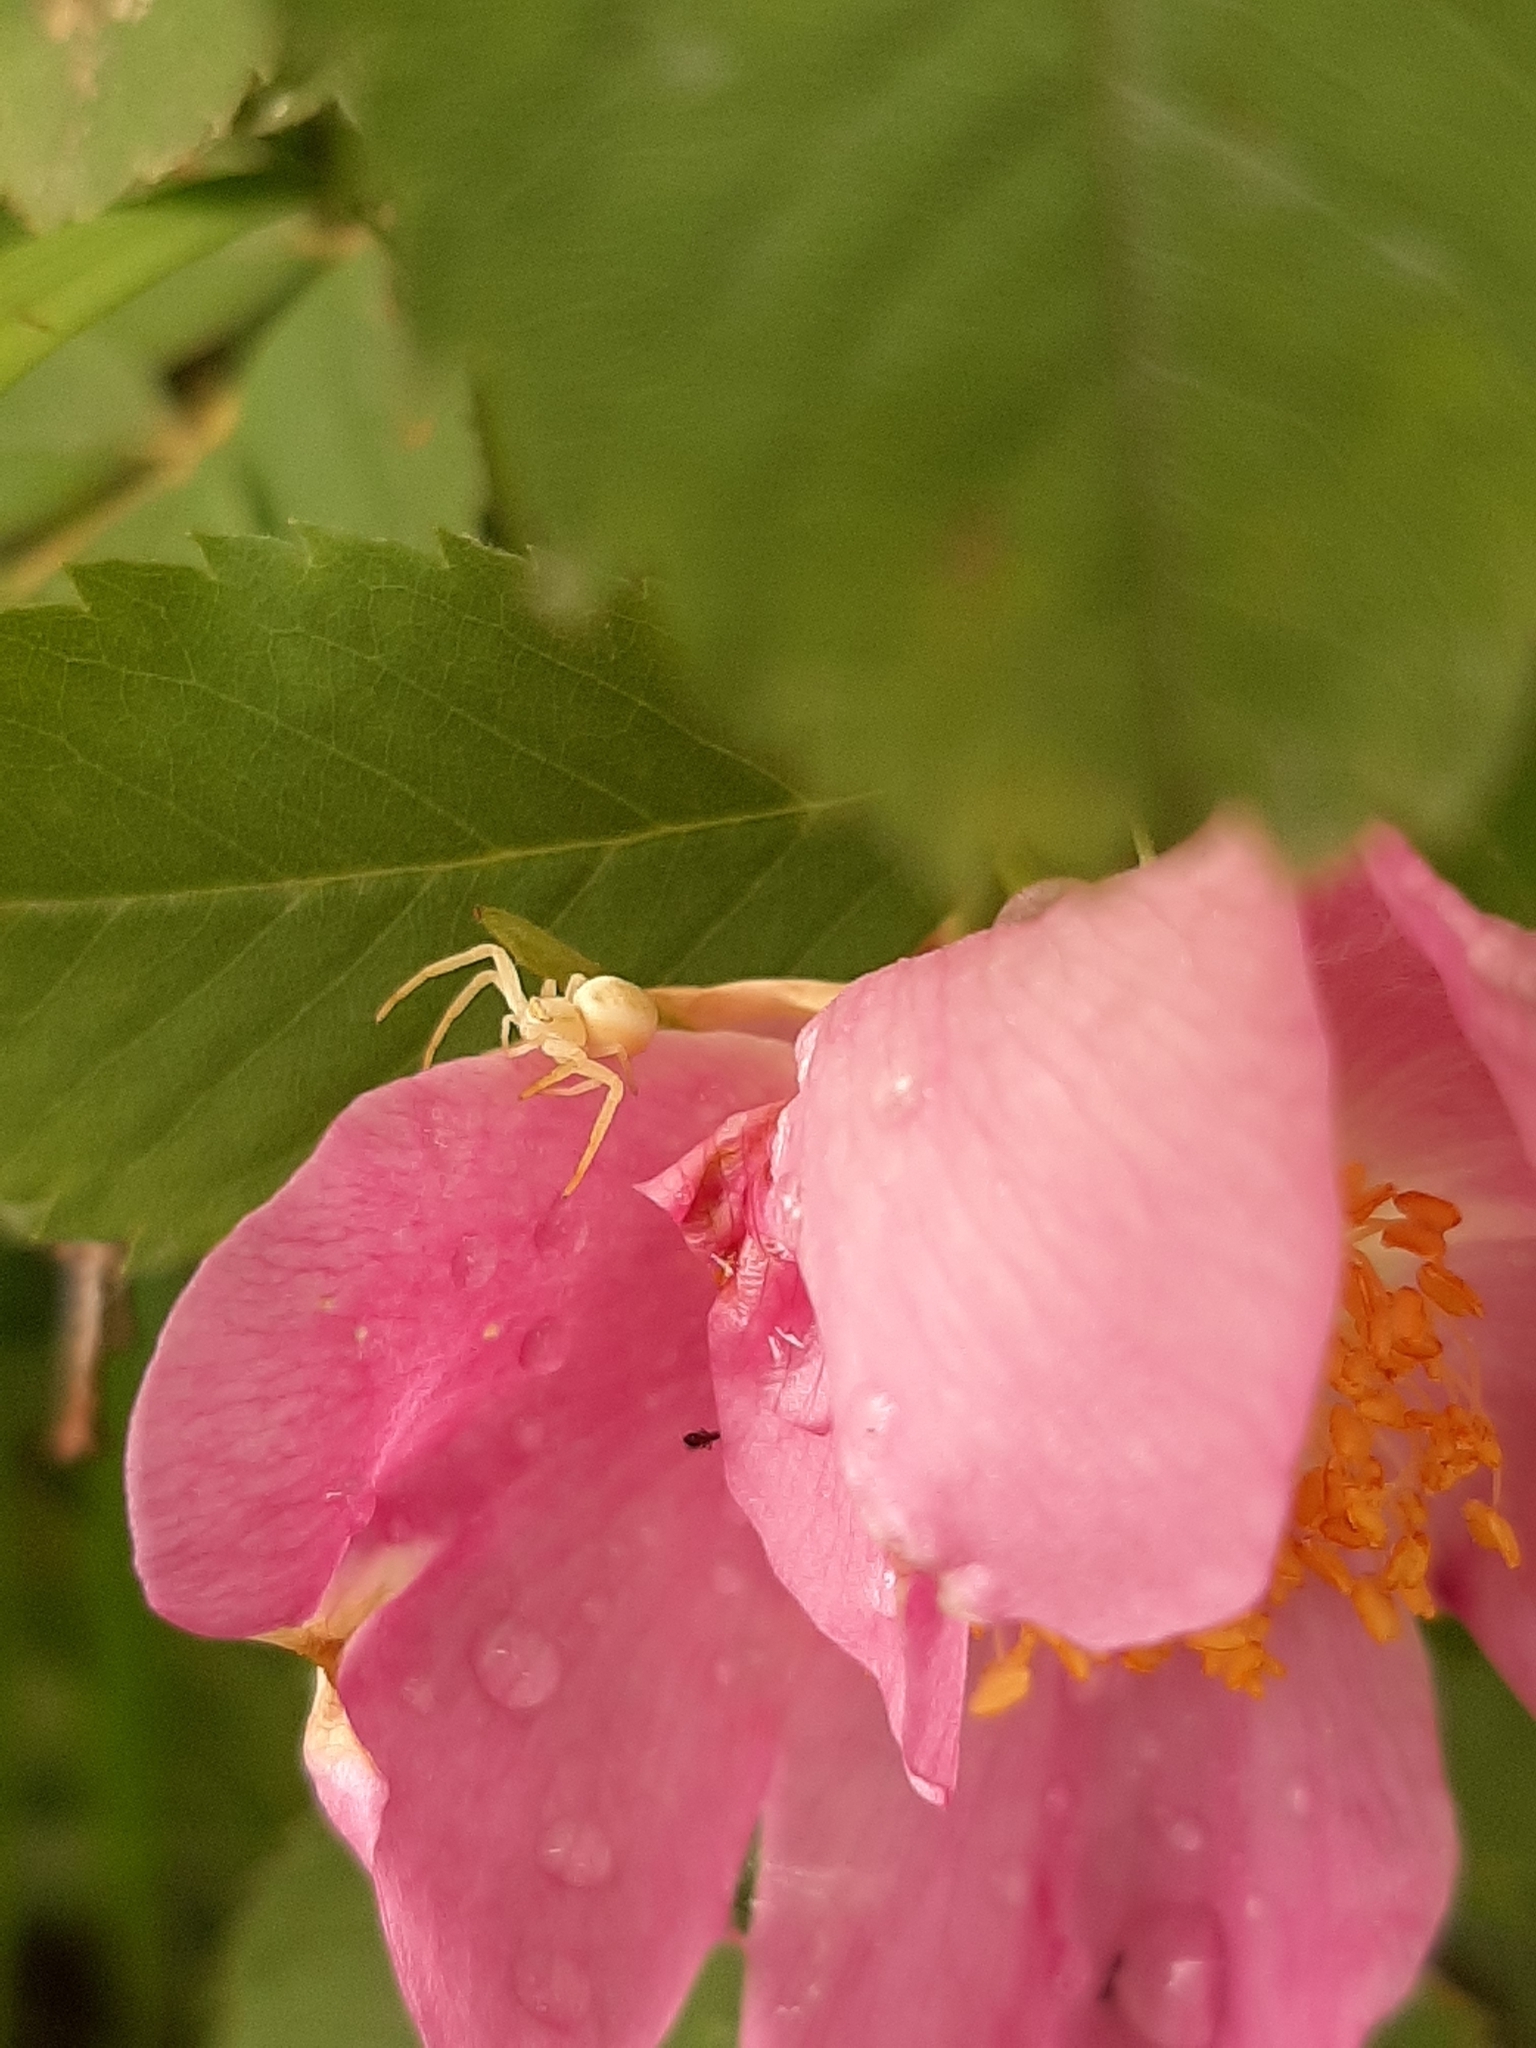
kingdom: Animalia
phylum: Arthropoda
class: Arachnida
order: Araneae
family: Thomisidae
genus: Misumena
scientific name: Misumena vatia
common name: Goldenrod crab spider
